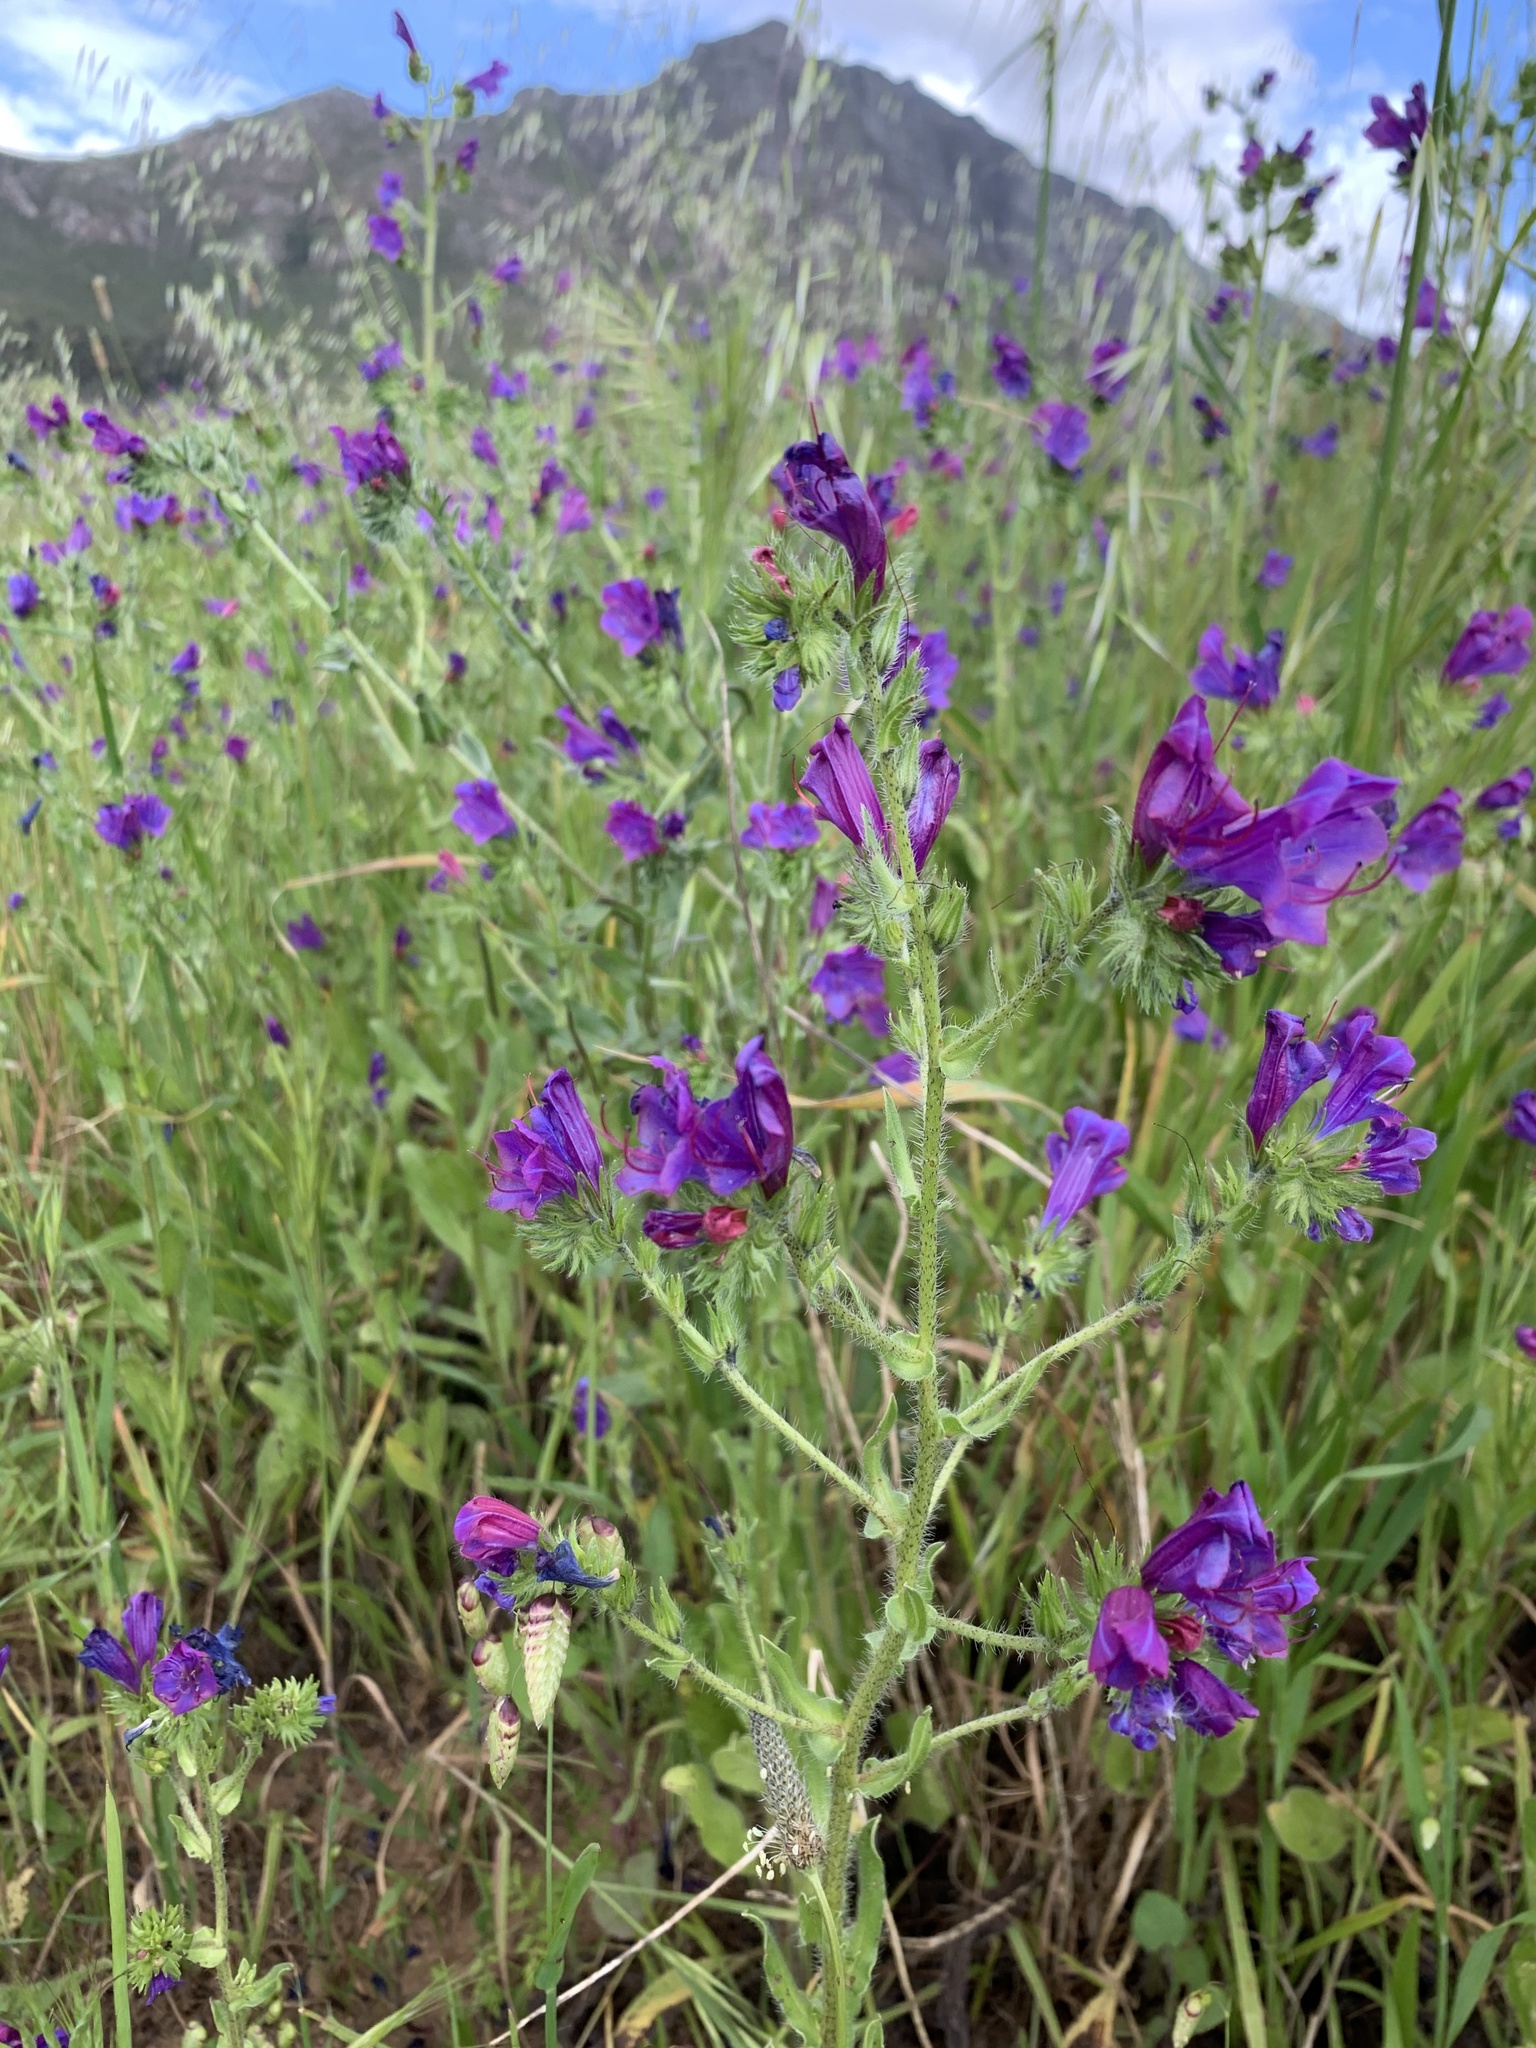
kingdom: Plantae
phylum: Tracheophyta
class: Magnoliopsida
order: Boraginales
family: Boraginaceae
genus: Echium
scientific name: Echium plantagineum
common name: Purple viper's-bugloss
